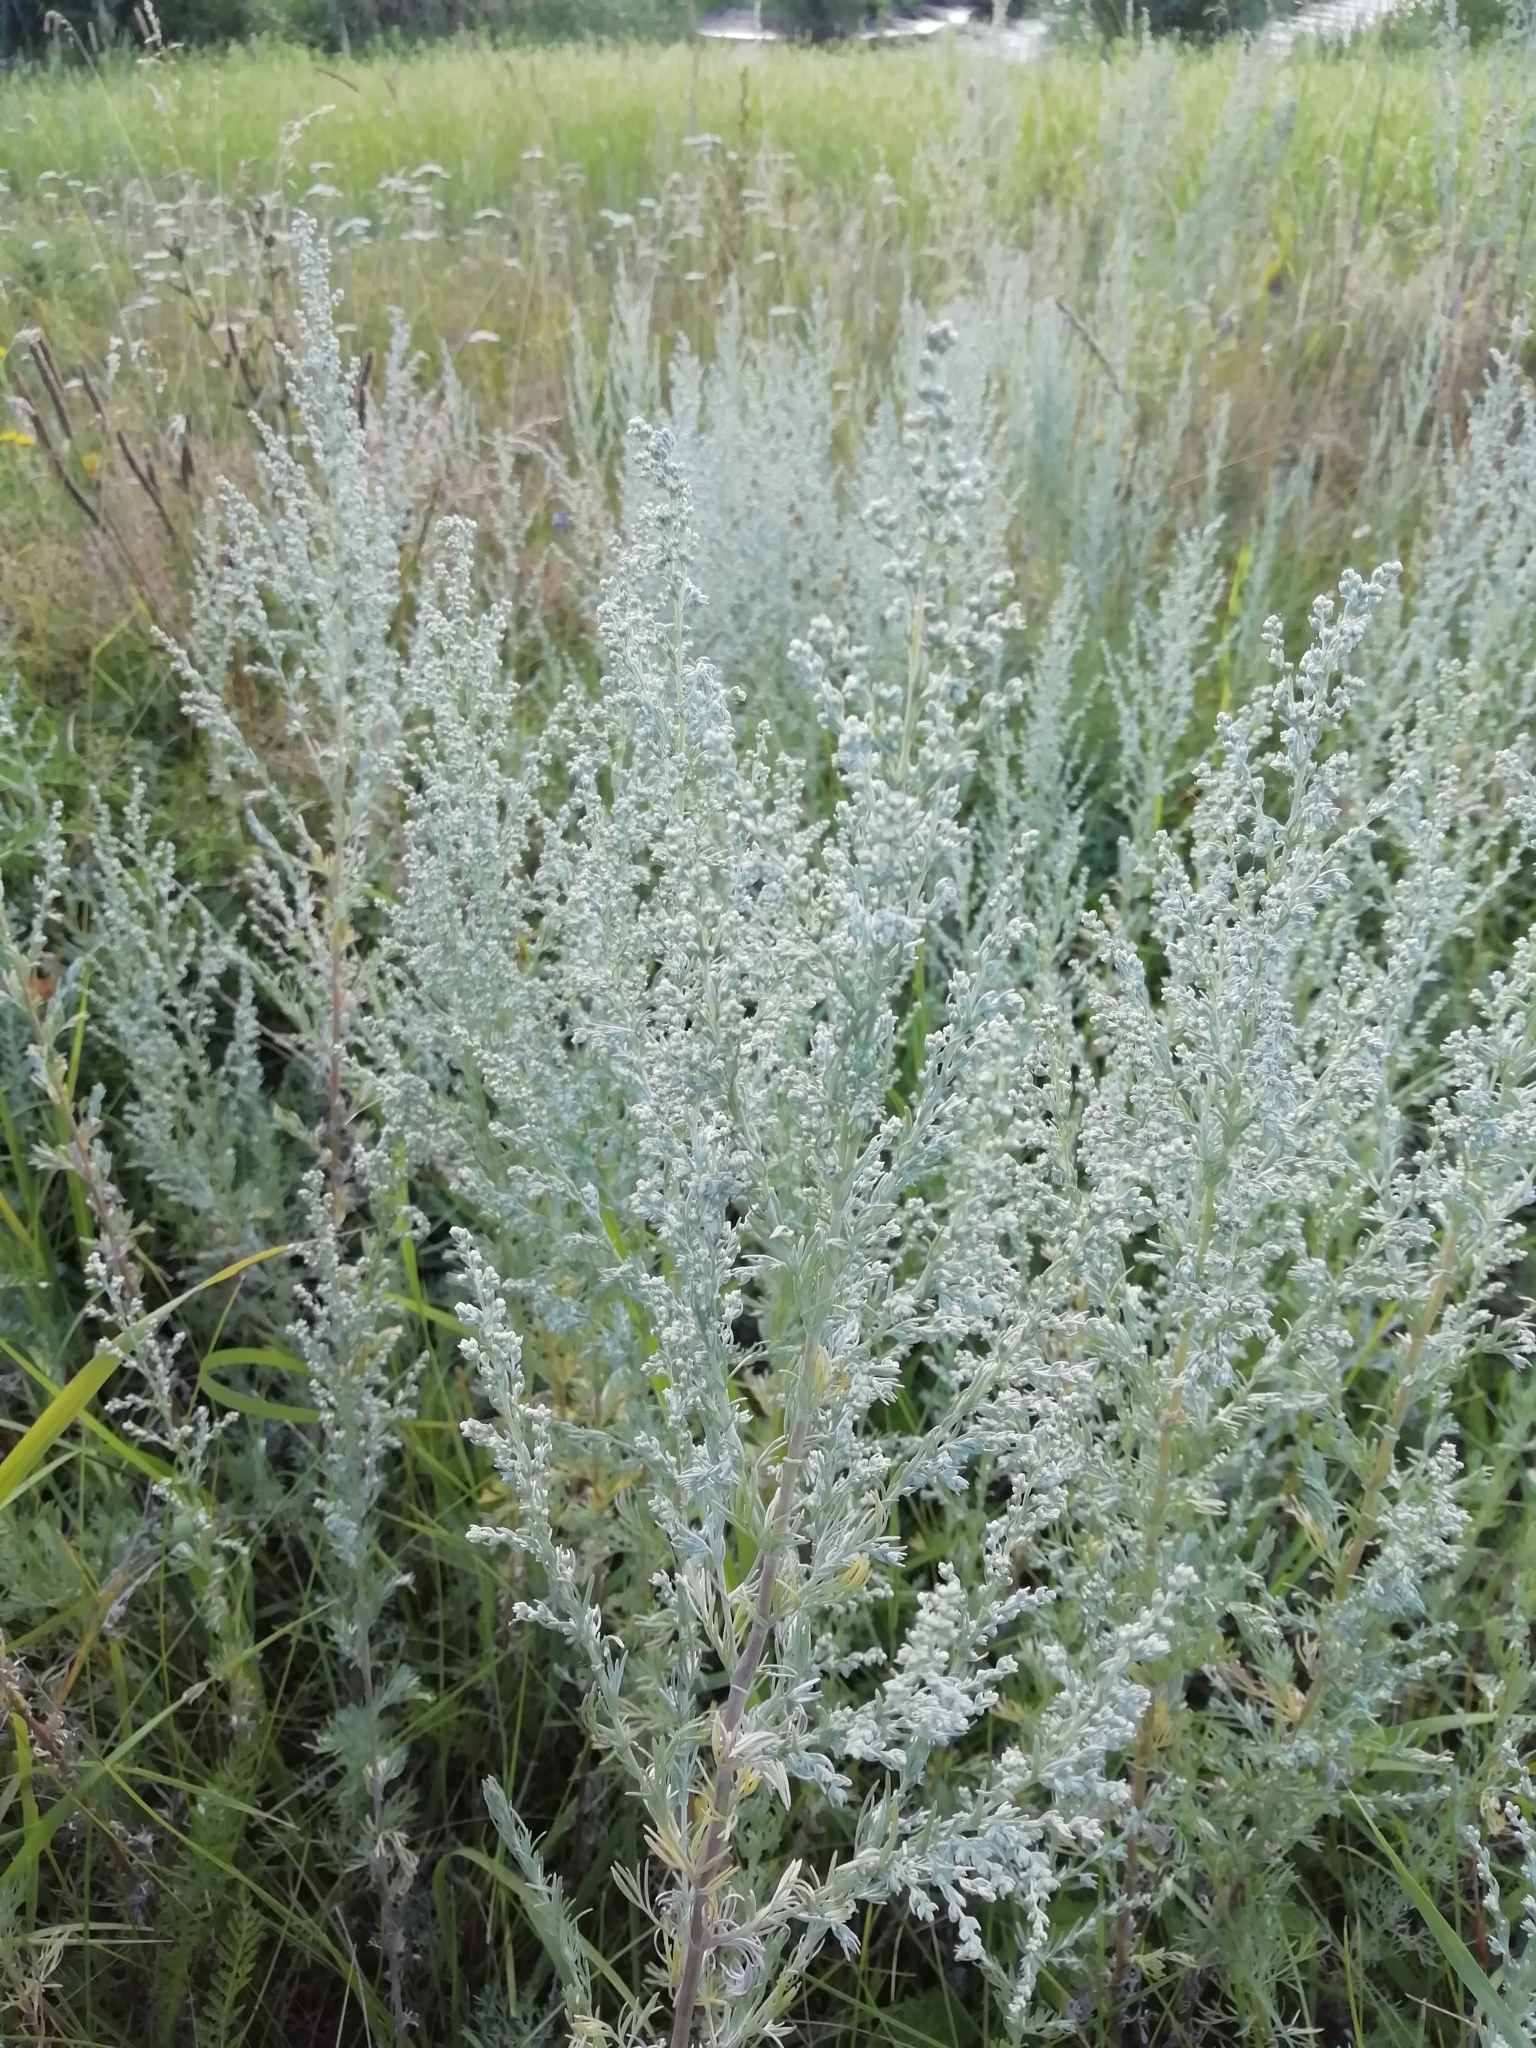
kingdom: Plantae
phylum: Tracheophyta
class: Magnoliopsida
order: Asterales
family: Asteraceae
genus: Artemisia
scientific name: Artemisia austriaca
